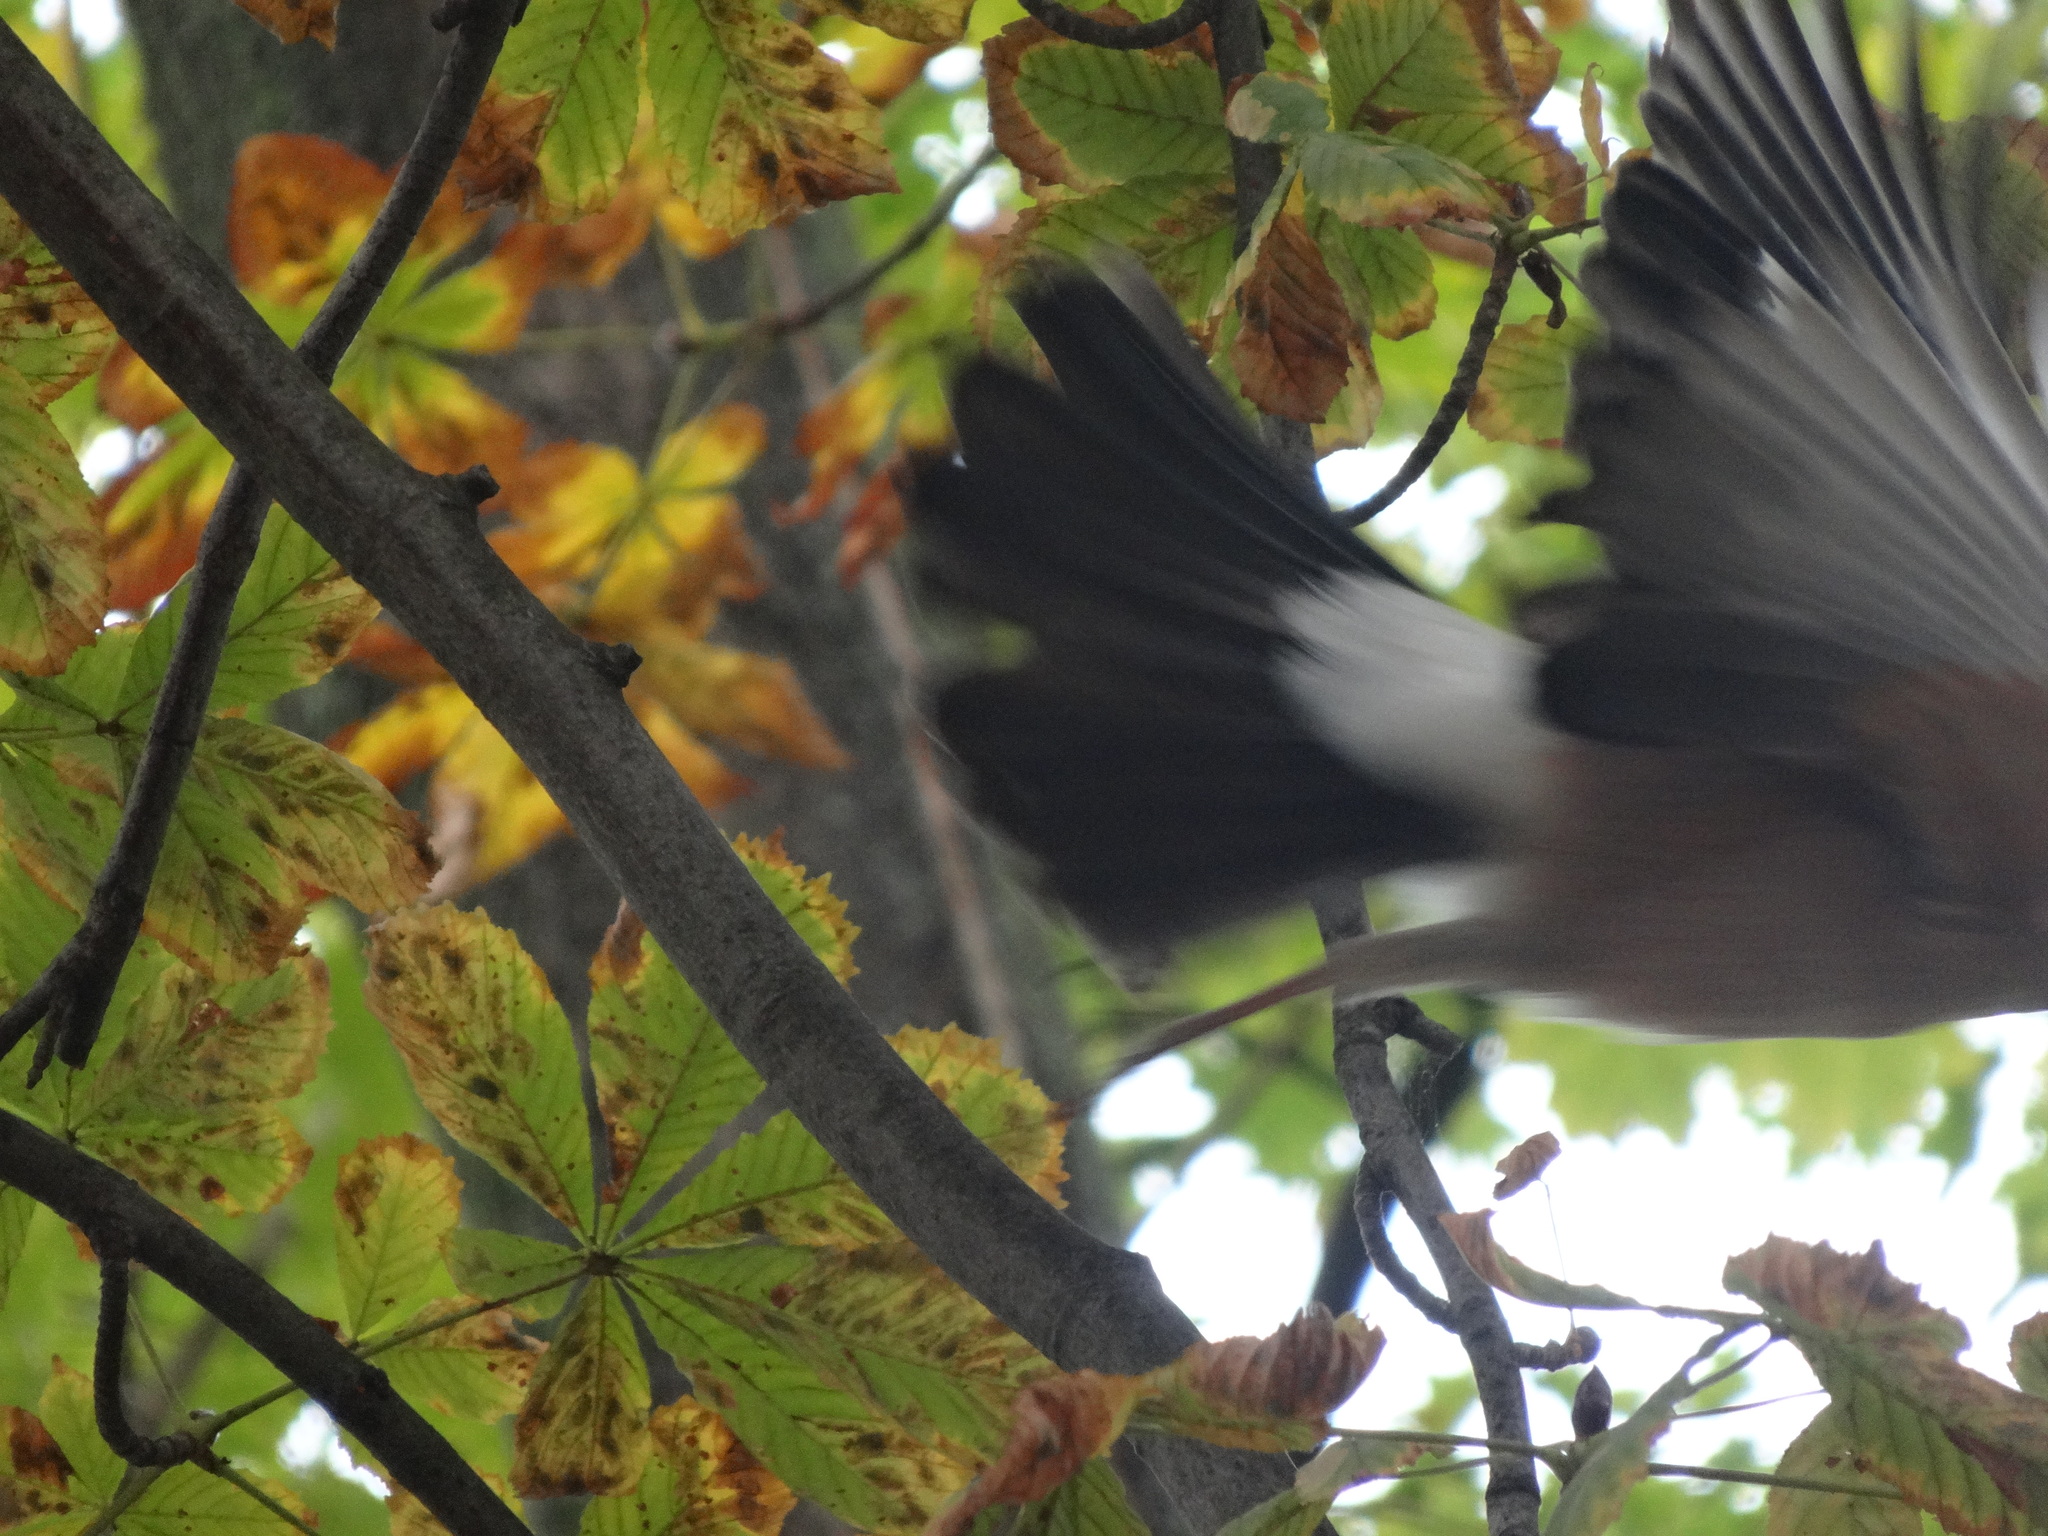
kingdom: Animalia
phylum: Chordata
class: Aves
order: Passeriformes
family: Corvidae
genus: Garrulus
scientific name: Garrulus glandarius
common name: Eurasian jay
